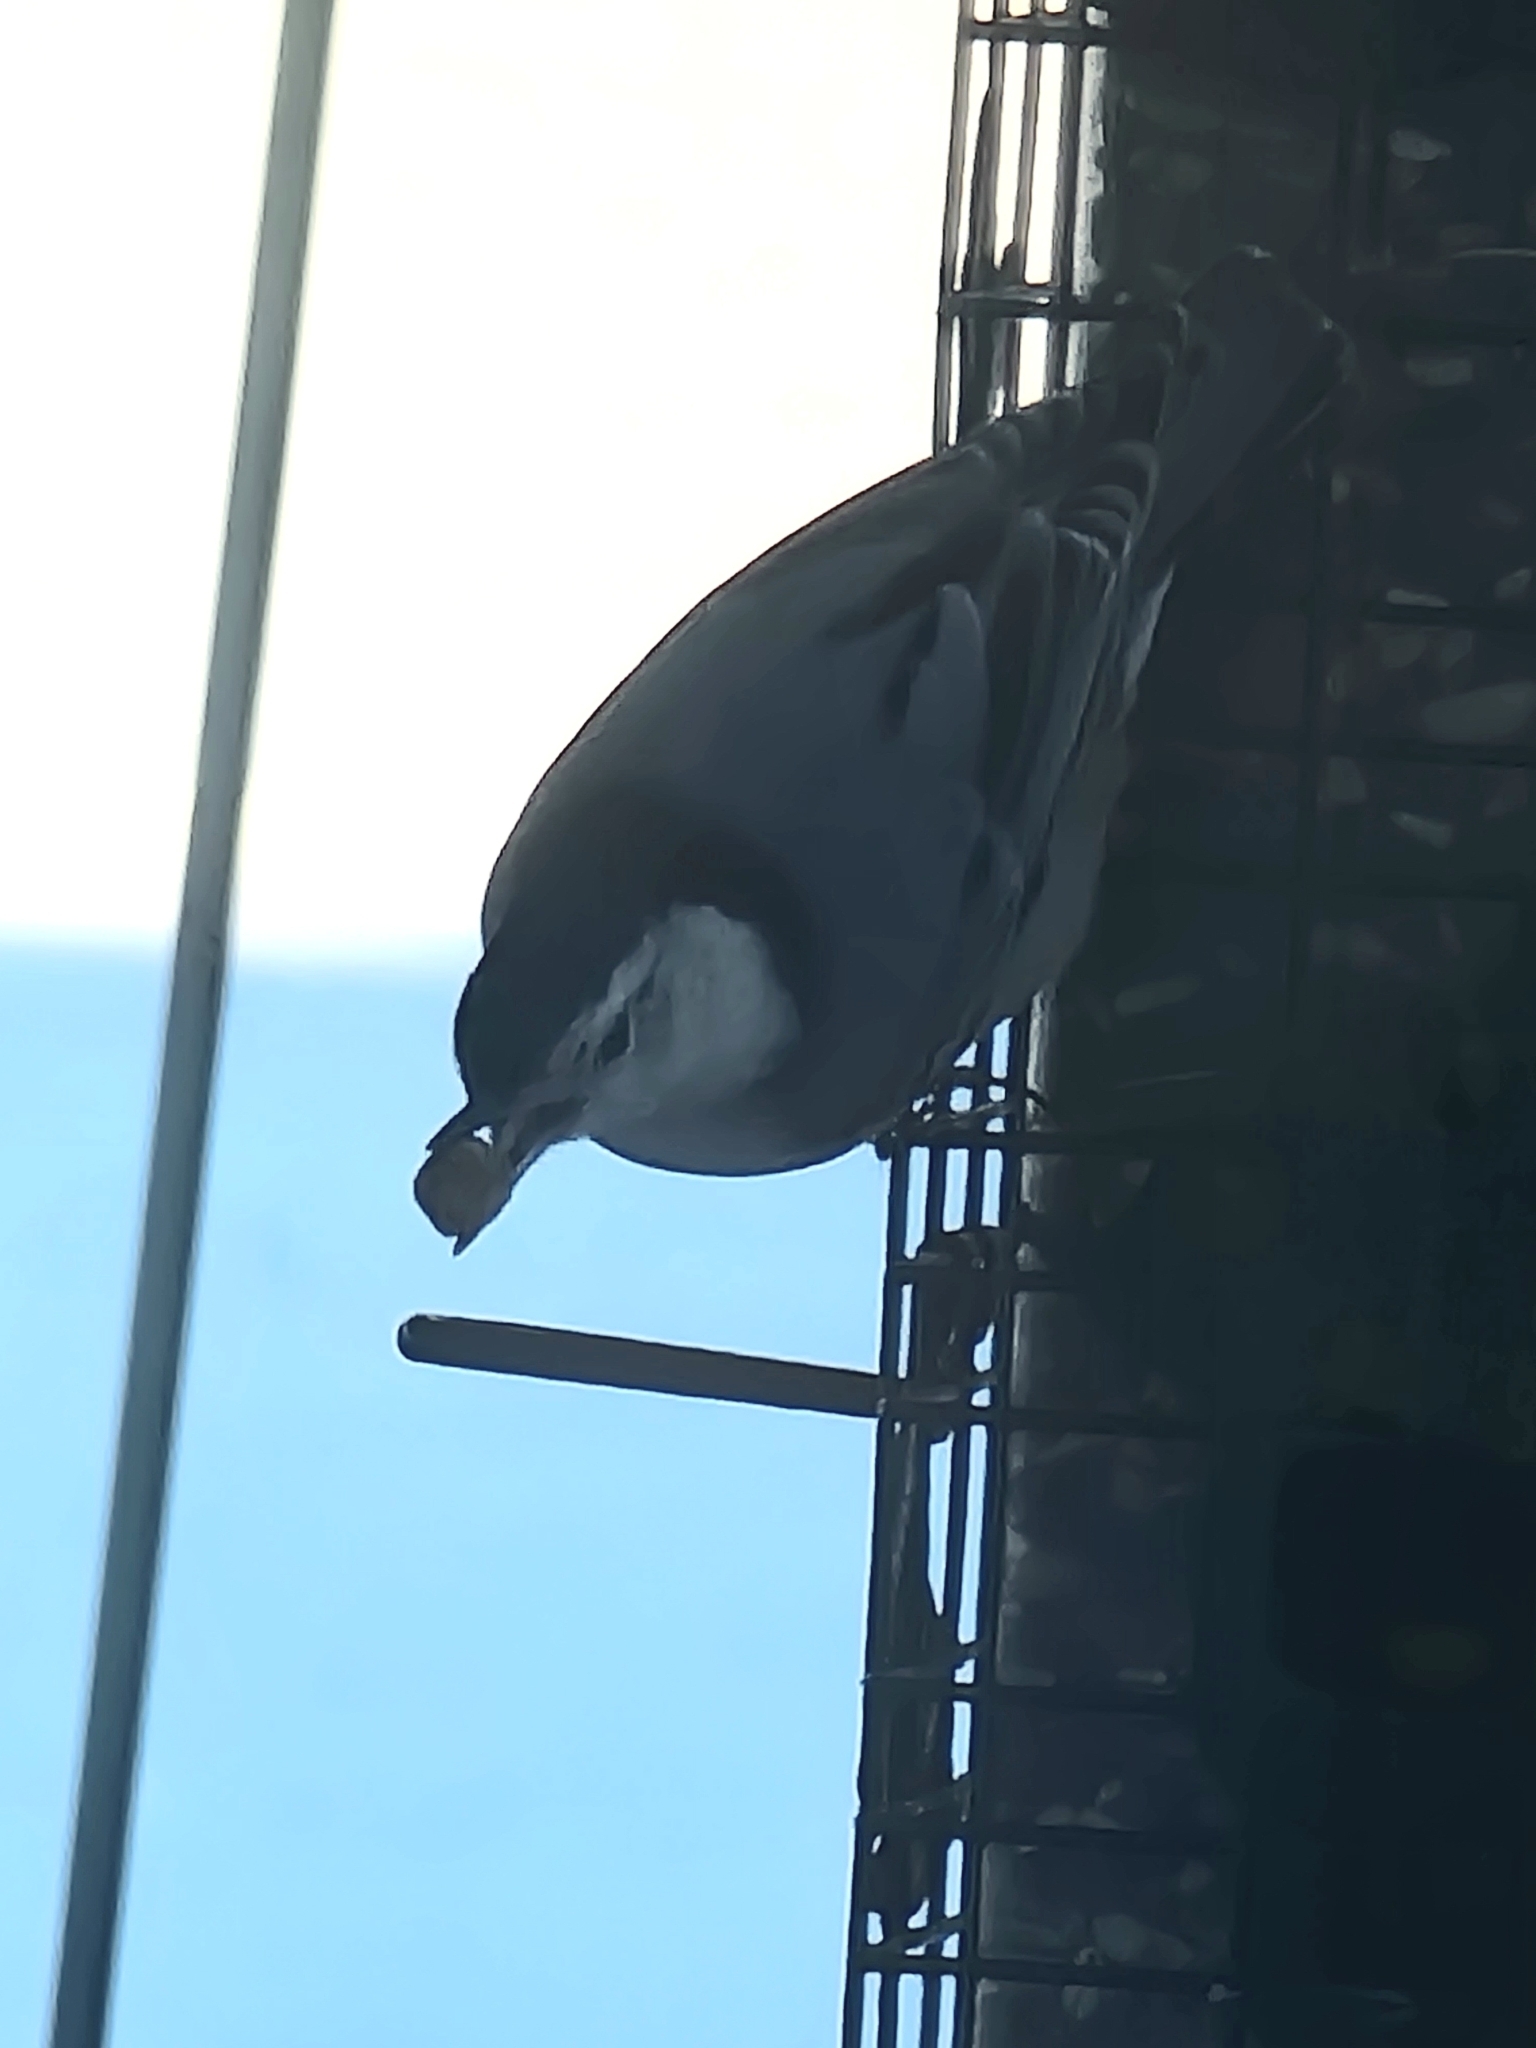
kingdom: Animalia
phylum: Chordata
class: Aves
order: Passeriformes
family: Sittidae
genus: Sitta
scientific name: Sitta carolinensis
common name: White-breasted nuthatch
